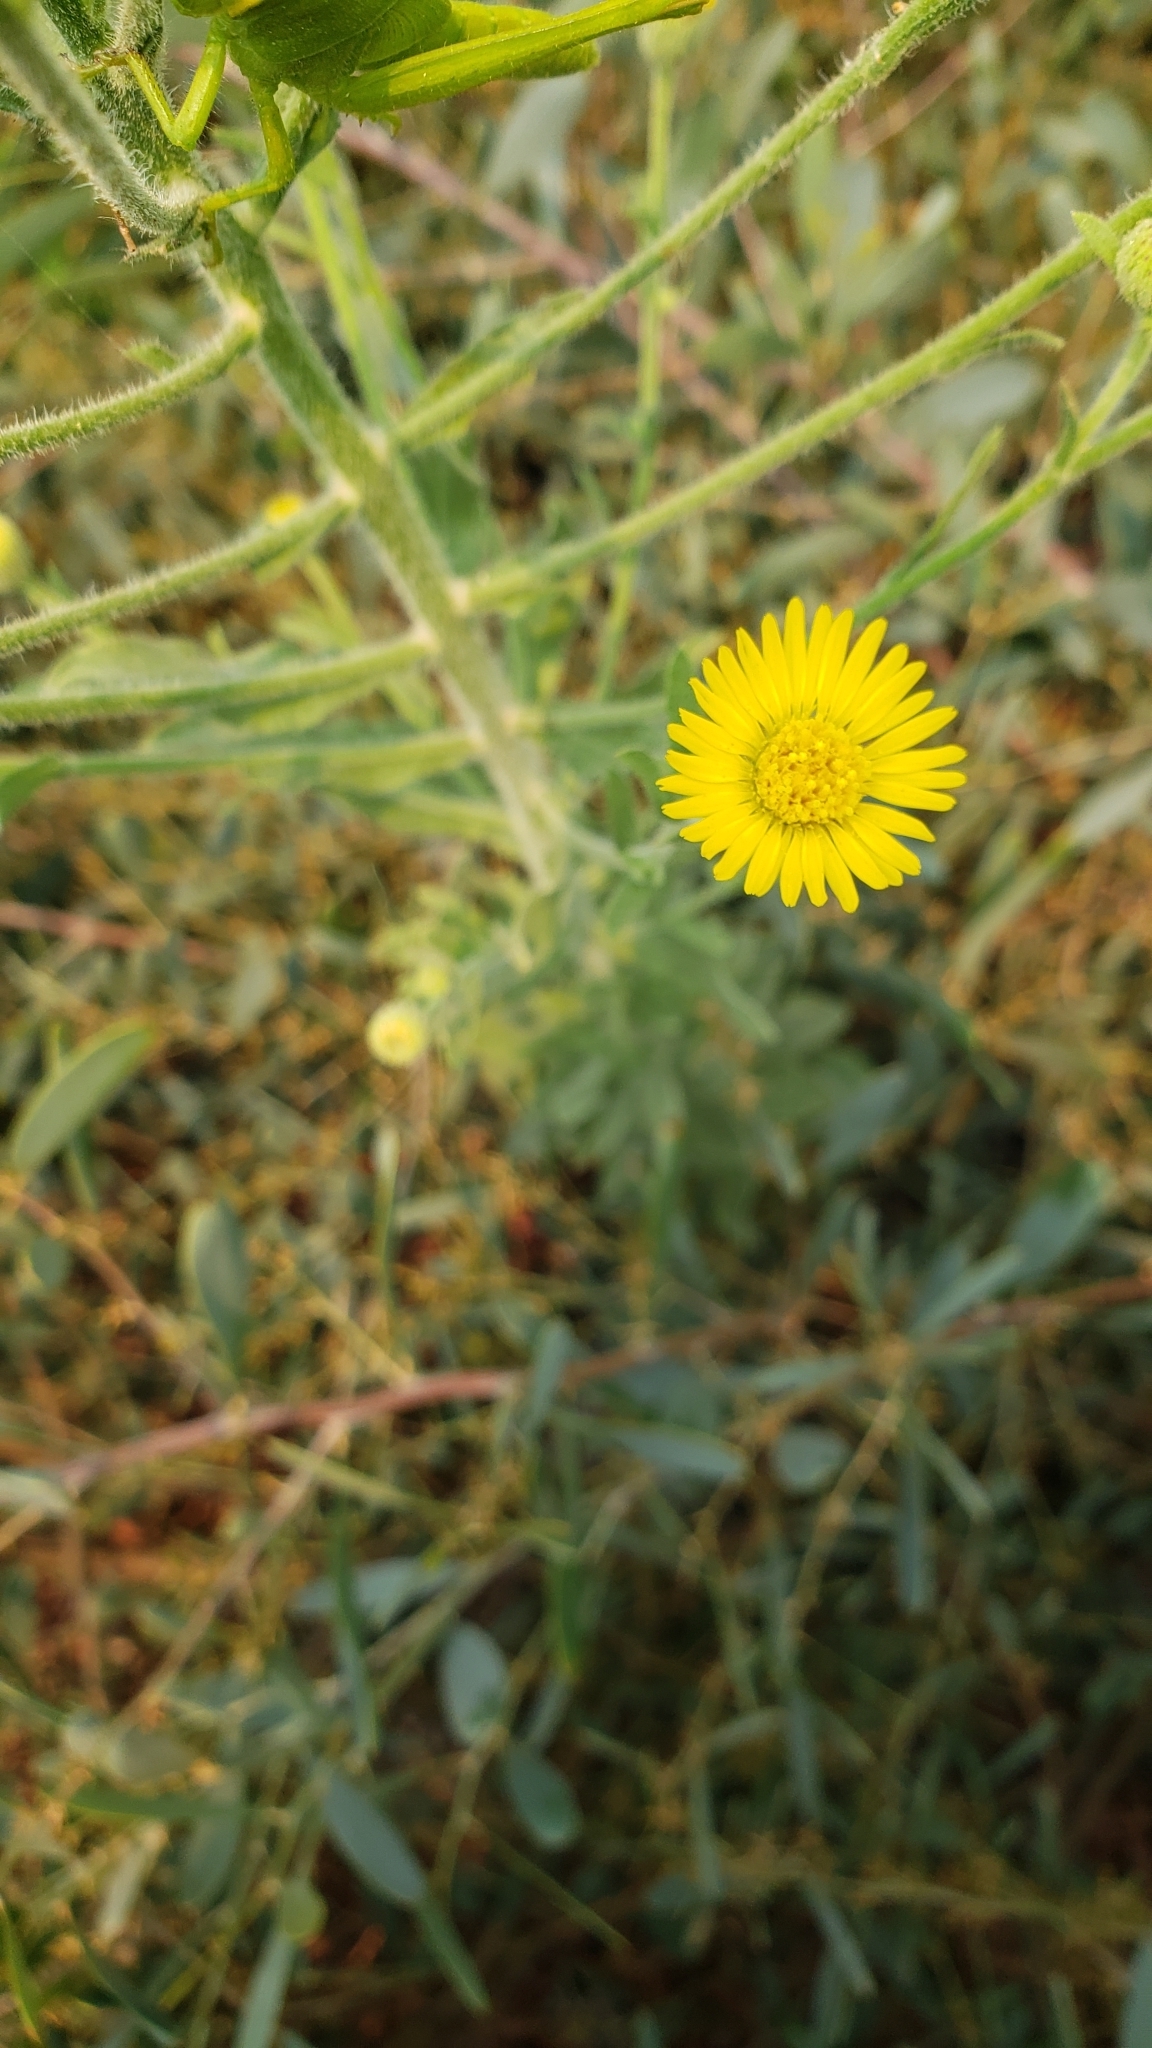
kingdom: Plantae
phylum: Tracheophyta
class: Magnoliopsida
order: Asterales
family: Asteraceae
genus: Heterotheca
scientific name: Heterotheca grandiflora
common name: Telegraphweed
